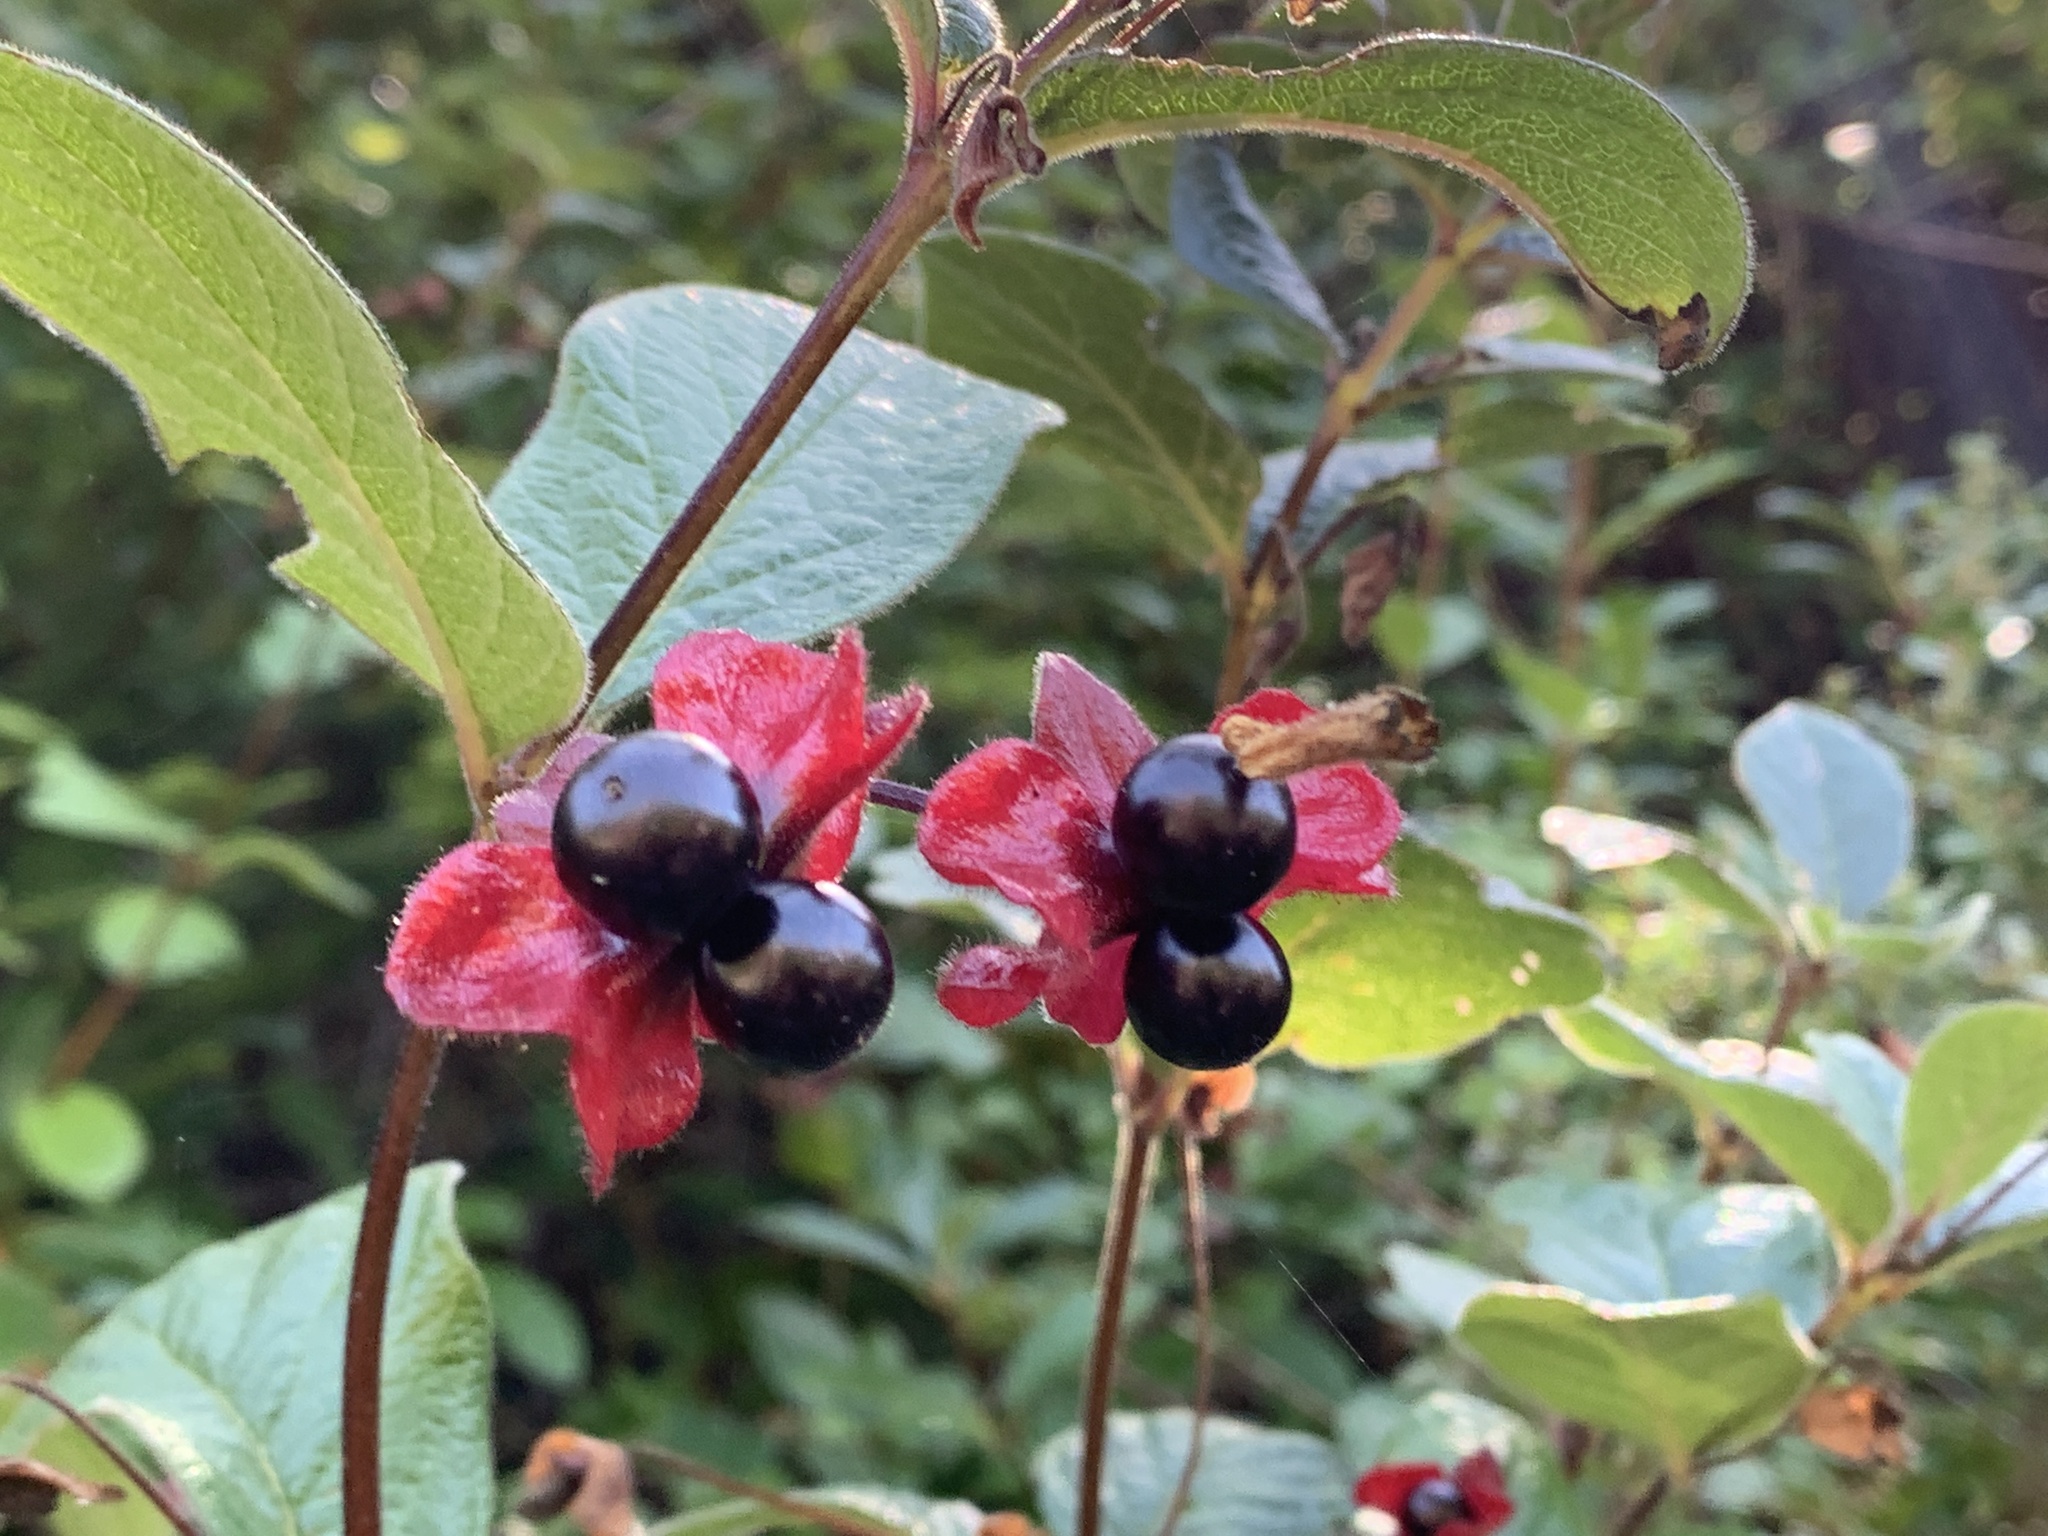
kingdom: Plantae
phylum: Tracheophyta
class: Magnoliopsida
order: Dipsacales
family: Caprifoliaceae
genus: Lonicera
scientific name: Lonicera involucrata
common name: Californian honeysuckle
